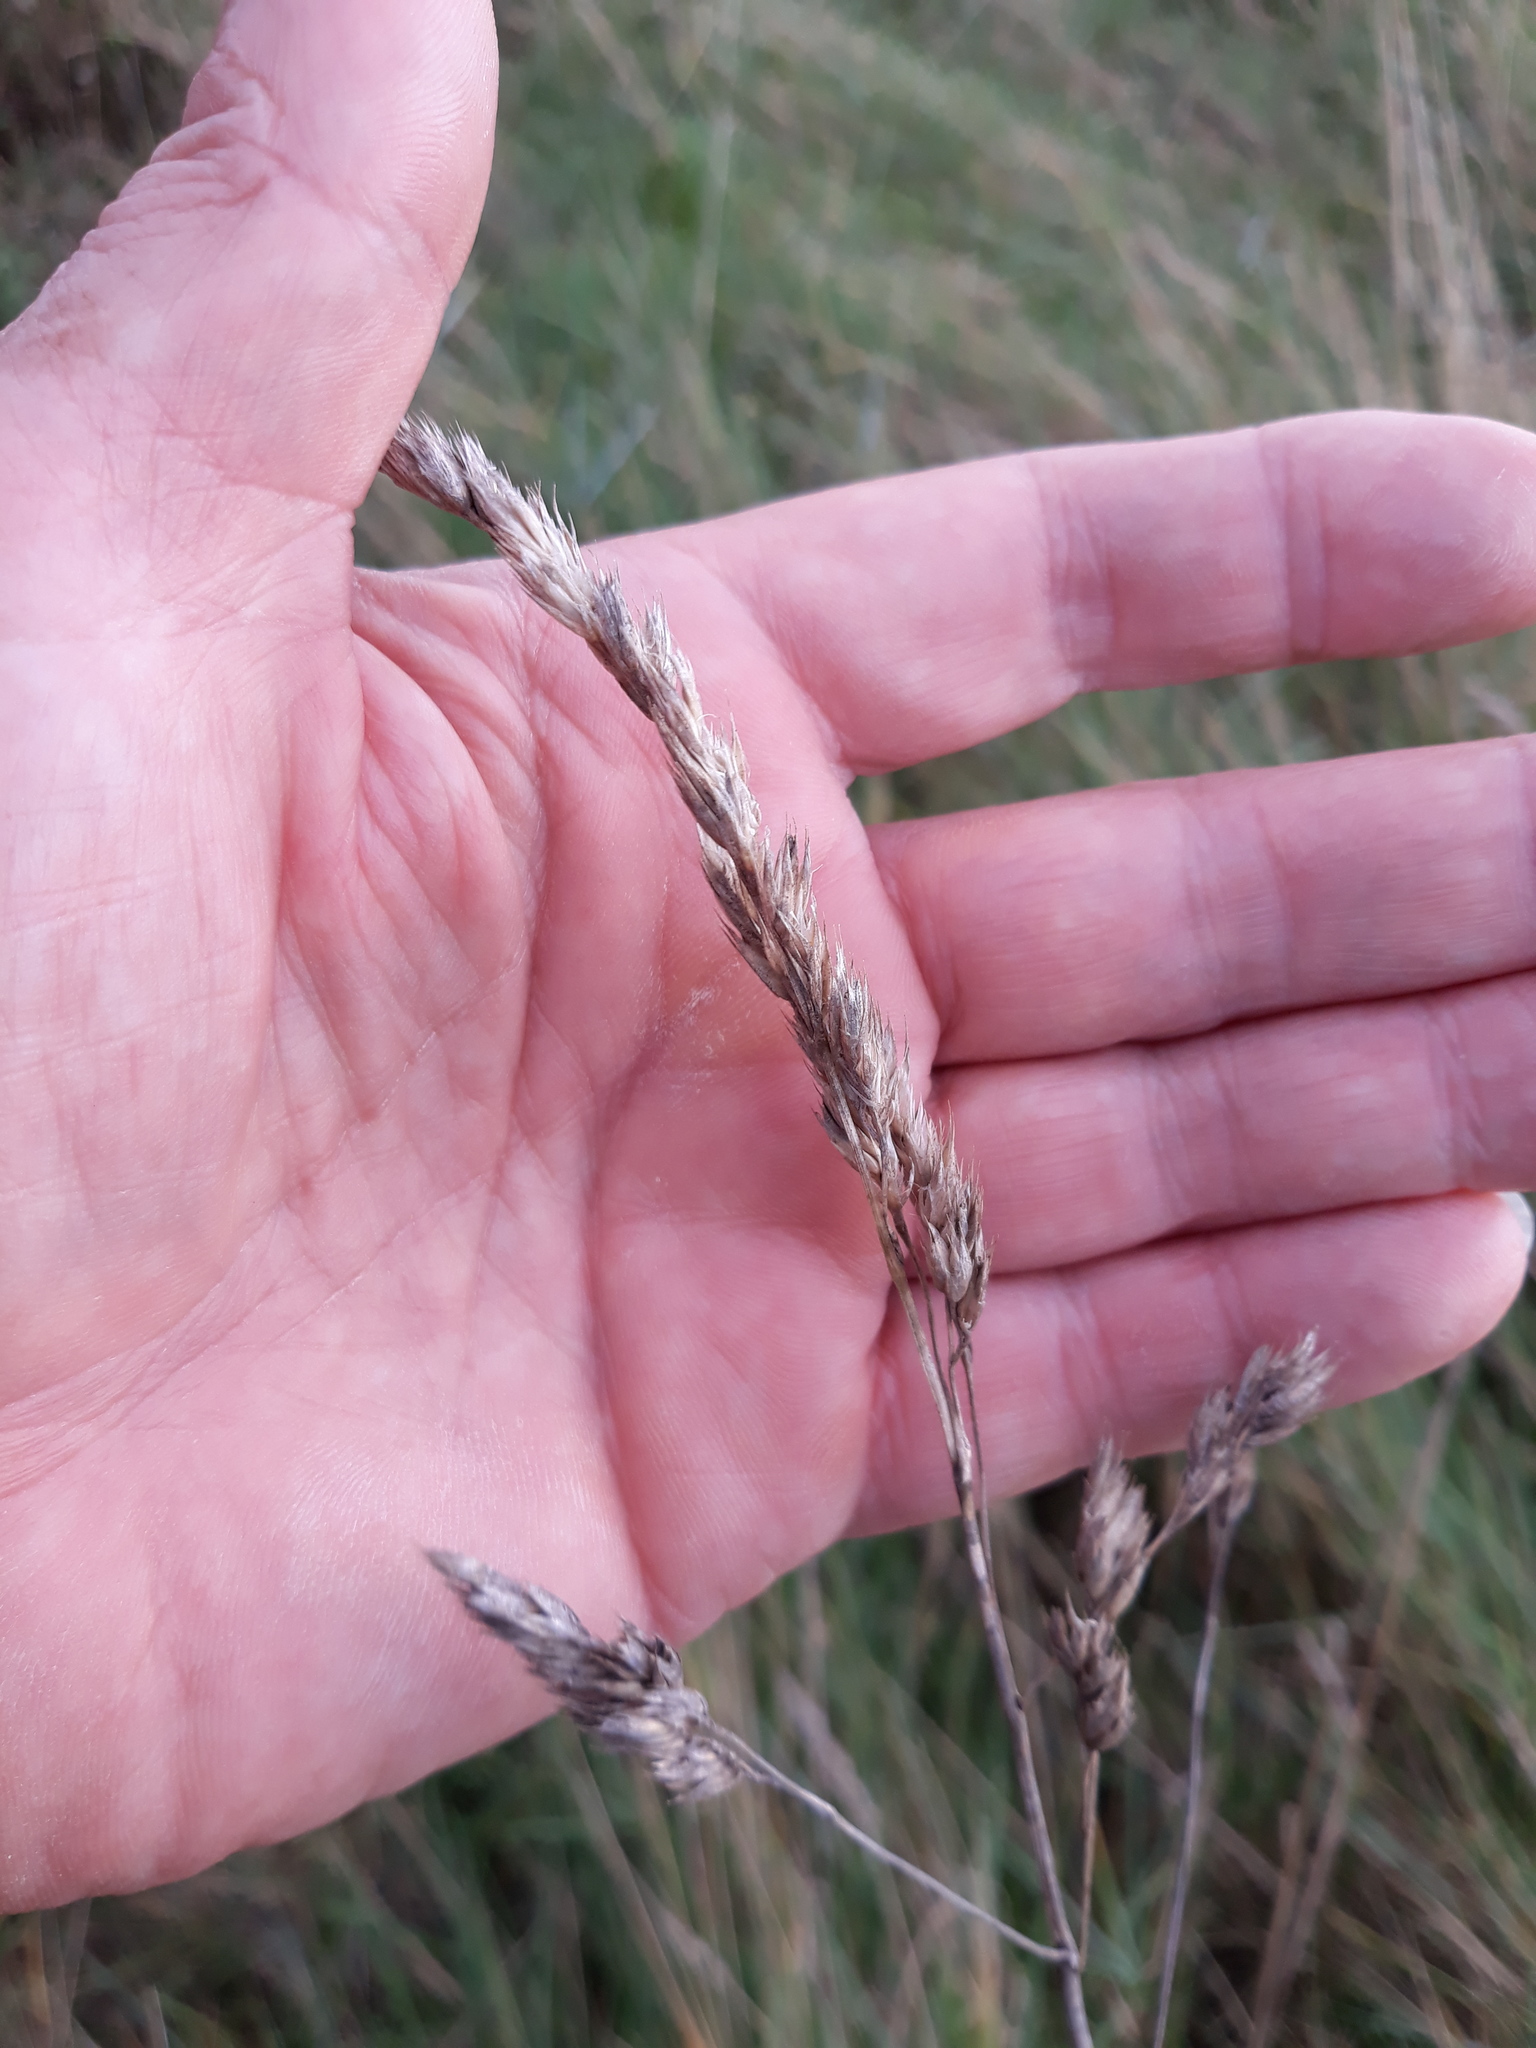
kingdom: Plantae
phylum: Tracheophyta
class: Liliopsida
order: Poales
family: Poaceae
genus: Dactylis
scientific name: Dactylis glomerata
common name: Orchardgrass
